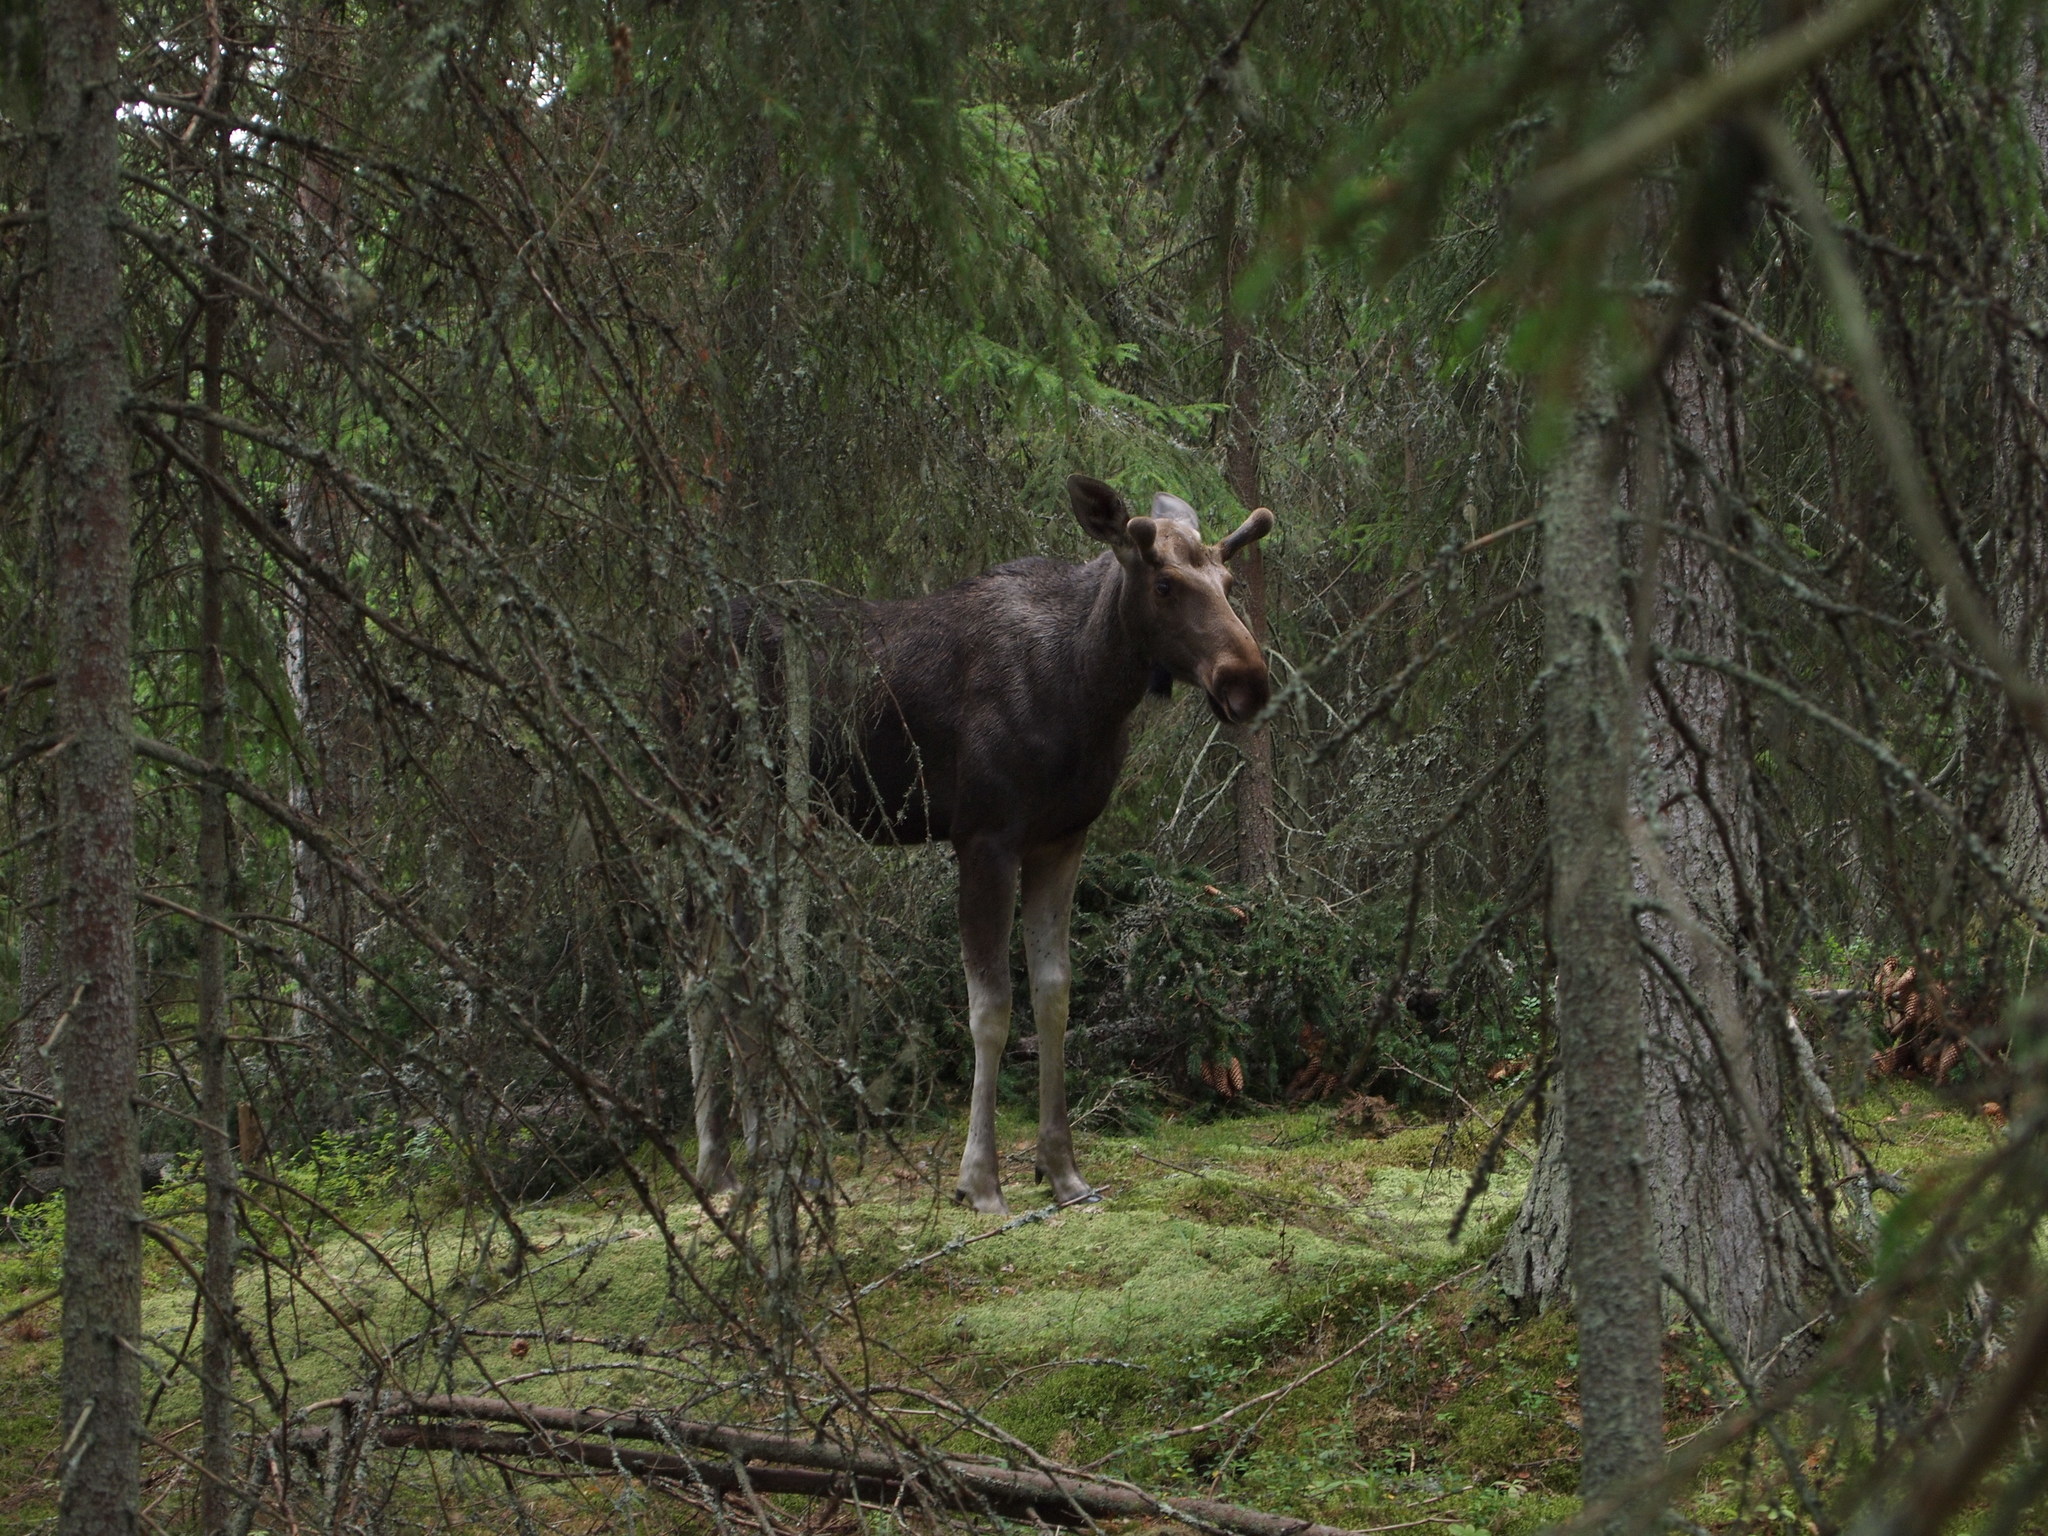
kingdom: Animalia
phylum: Chordata
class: Mammalia
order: Artiodactyla
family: Cervidae
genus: Alces
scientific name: Alces alces
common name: Moose
